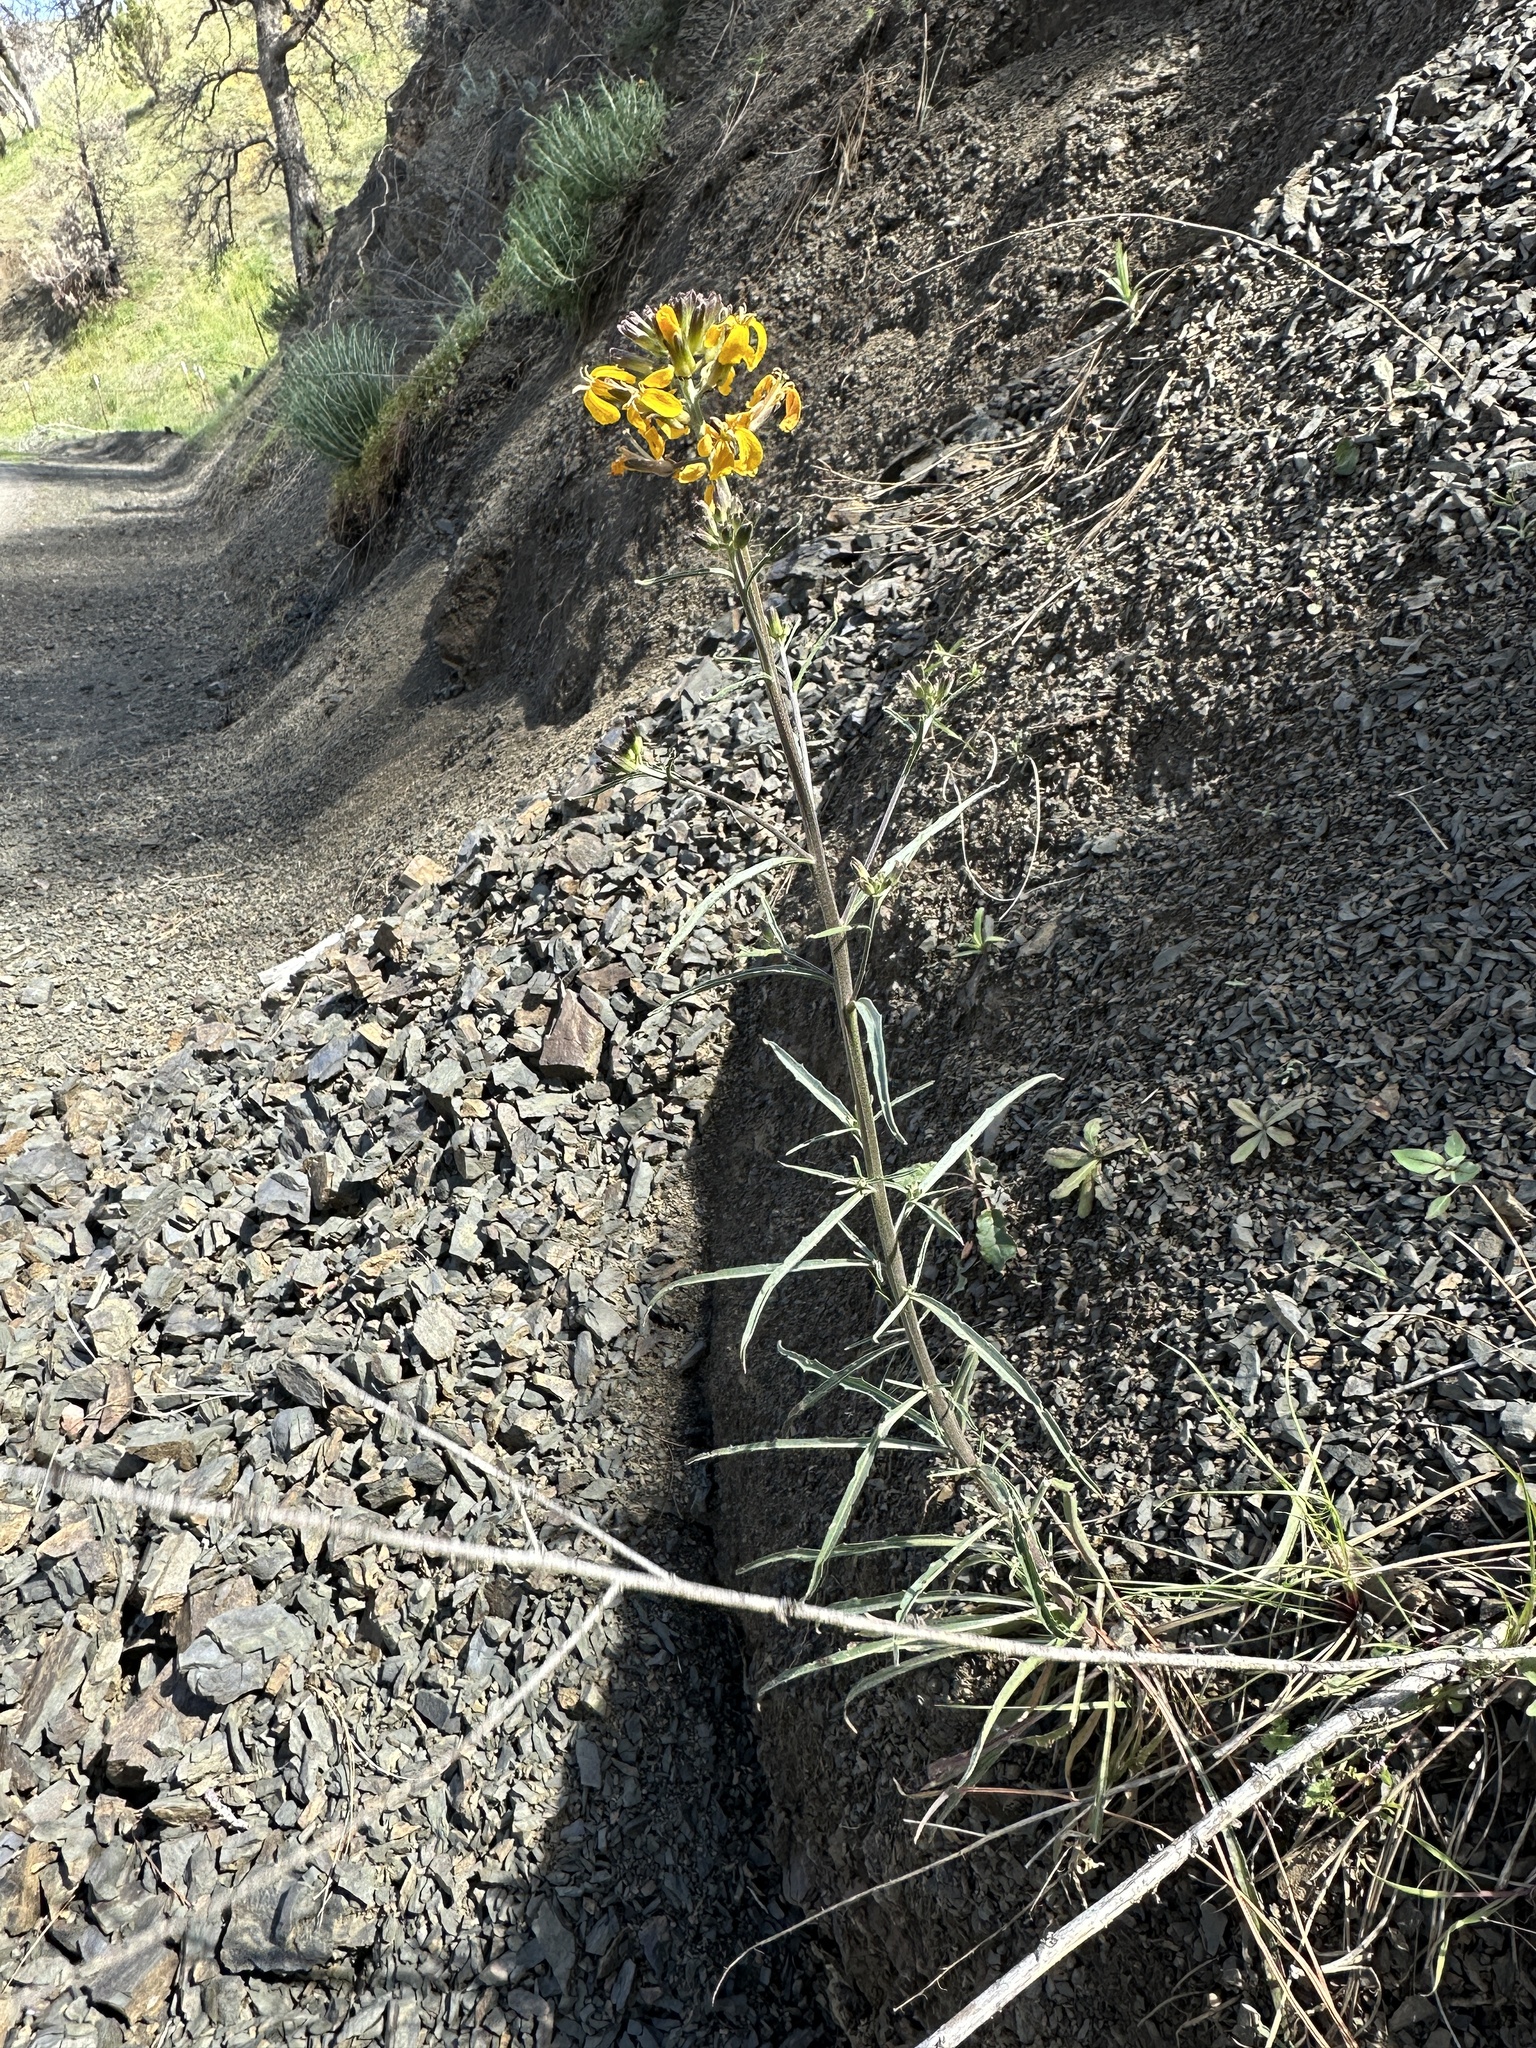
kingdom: Plantae
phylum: Tracheophyta
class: Magnoliopsida
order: Brassicales
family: Brassicaceae
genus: Erysimum
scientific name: Erysimum capitatum
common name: Western wallflower
